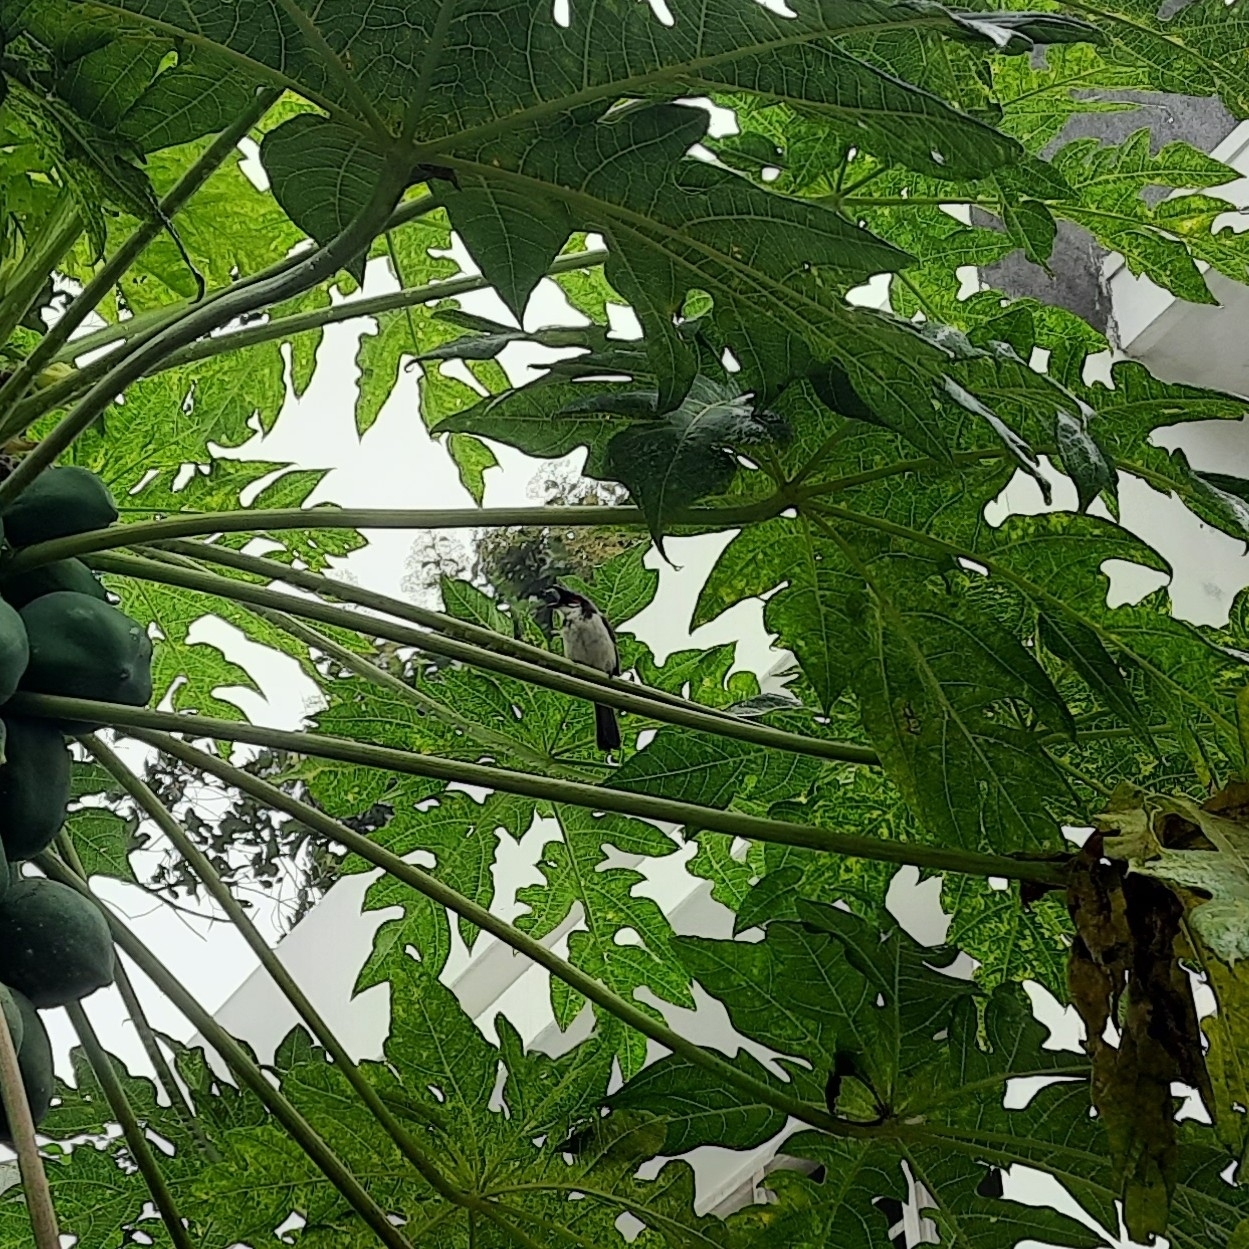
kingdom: Animalia
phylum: Chordata
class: Aves
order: Passeriformes
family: Pycnonotidae
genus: Pycnonotus
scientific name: Pycnonotus jocosus
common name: Red-whiskered bulbul
